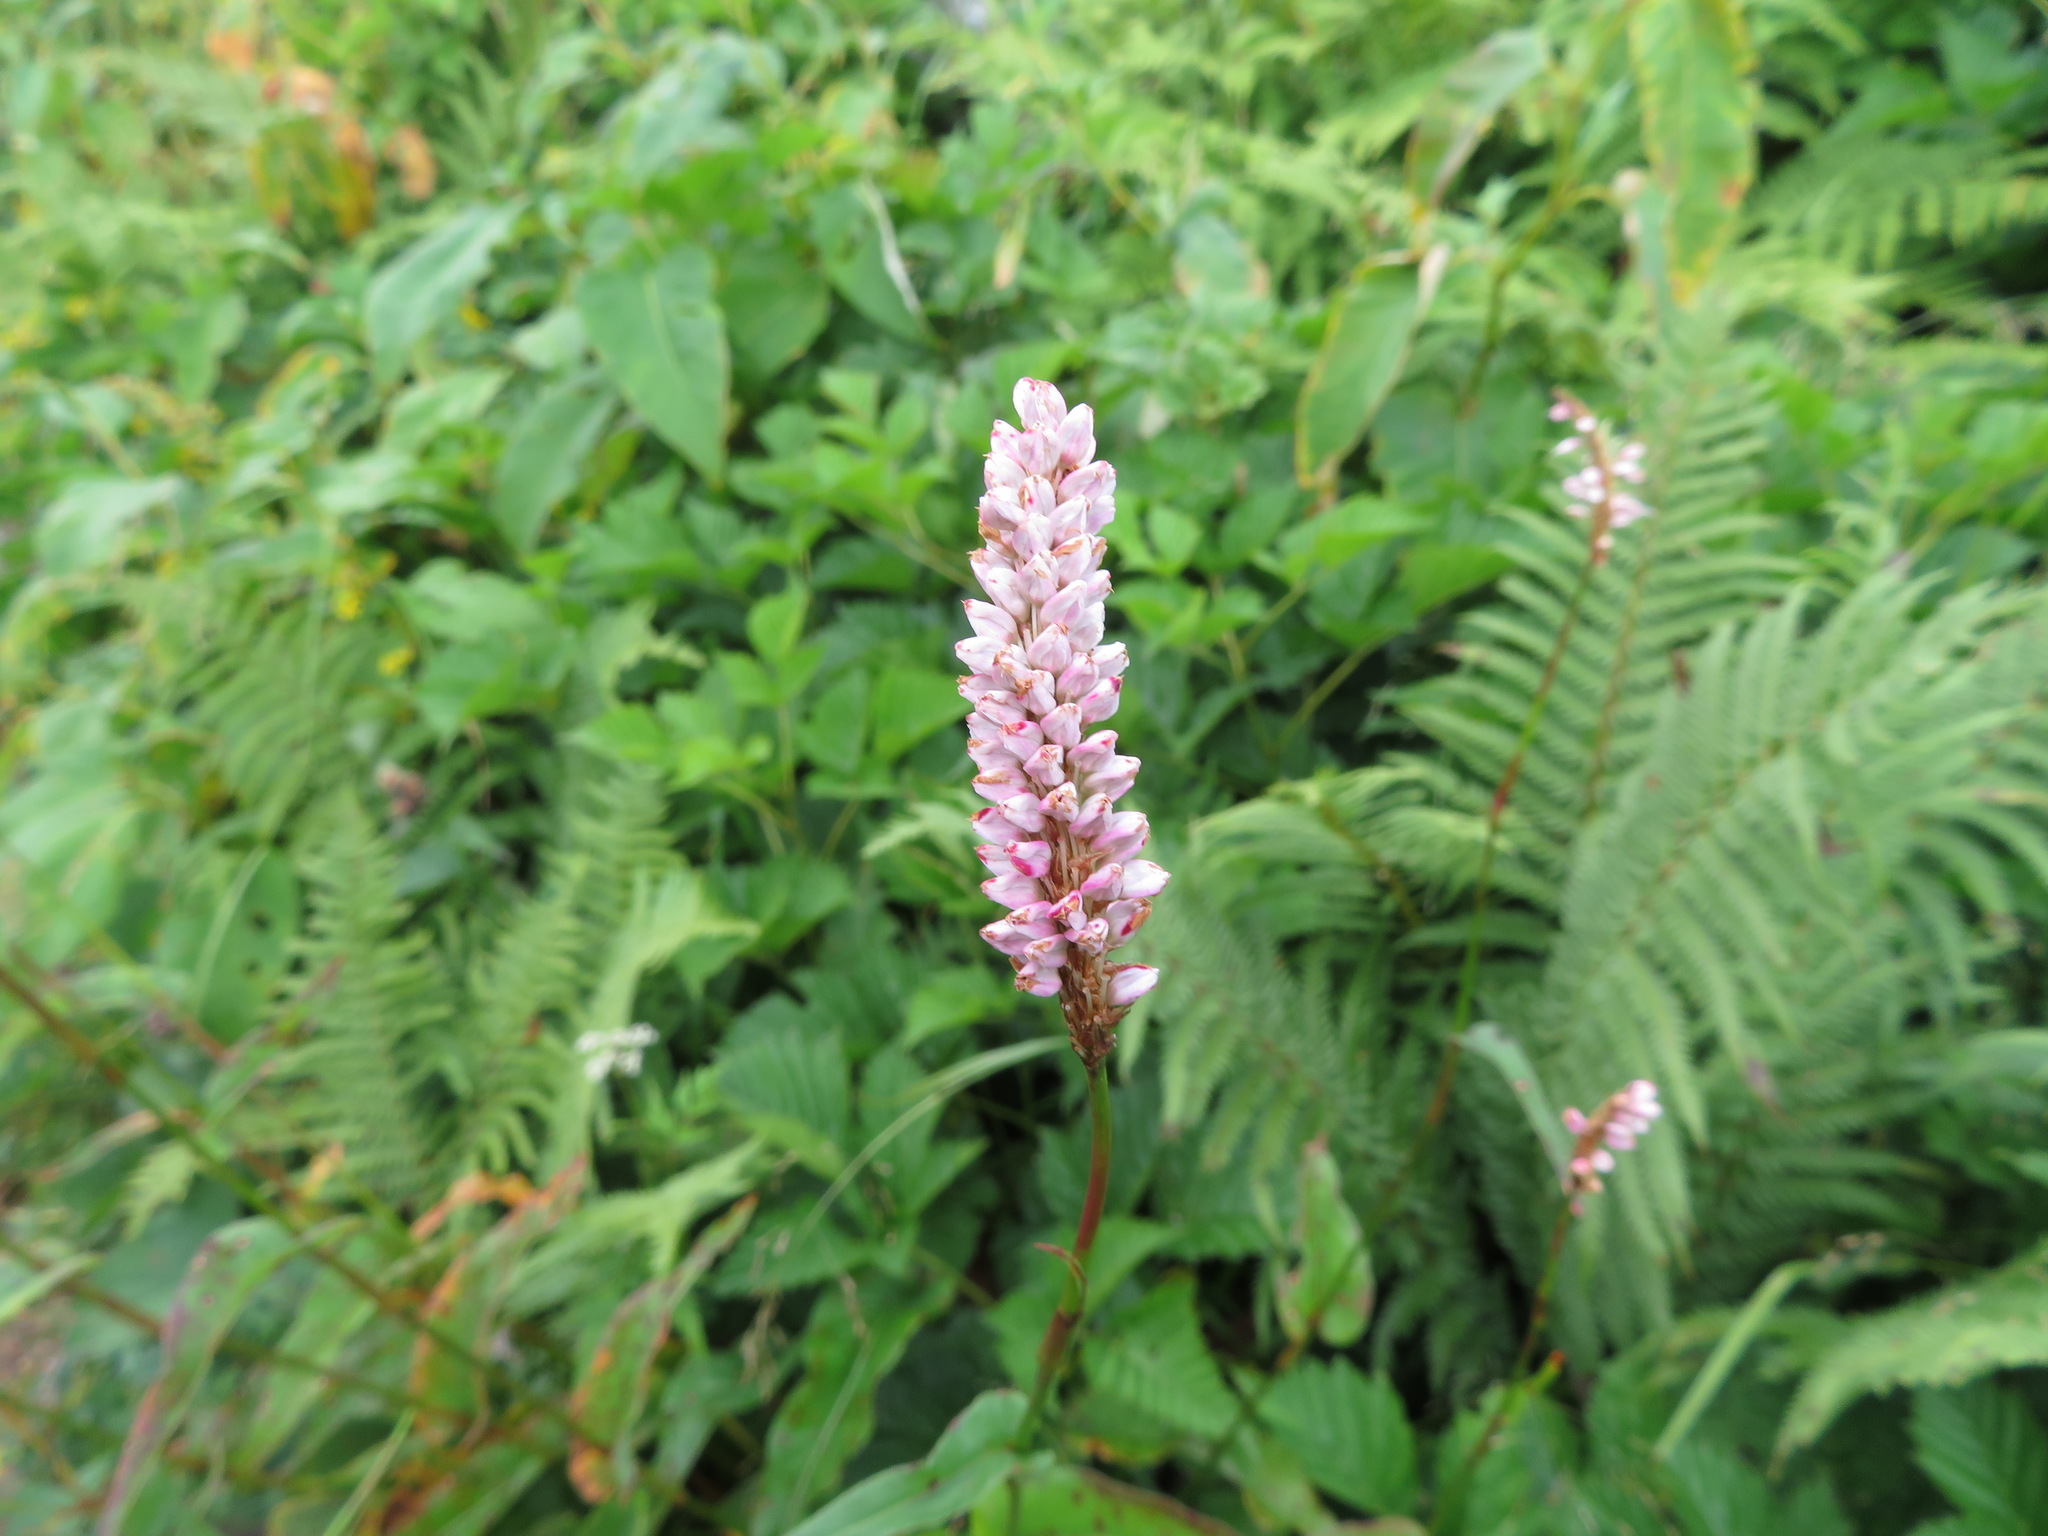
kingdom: Plantae
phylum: Tracheophyta
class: Magnoliopsida
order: Caryophyllales
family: Polygonaceae
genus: Bistorta
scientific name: Bistorta officinalis
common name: Common bistort
